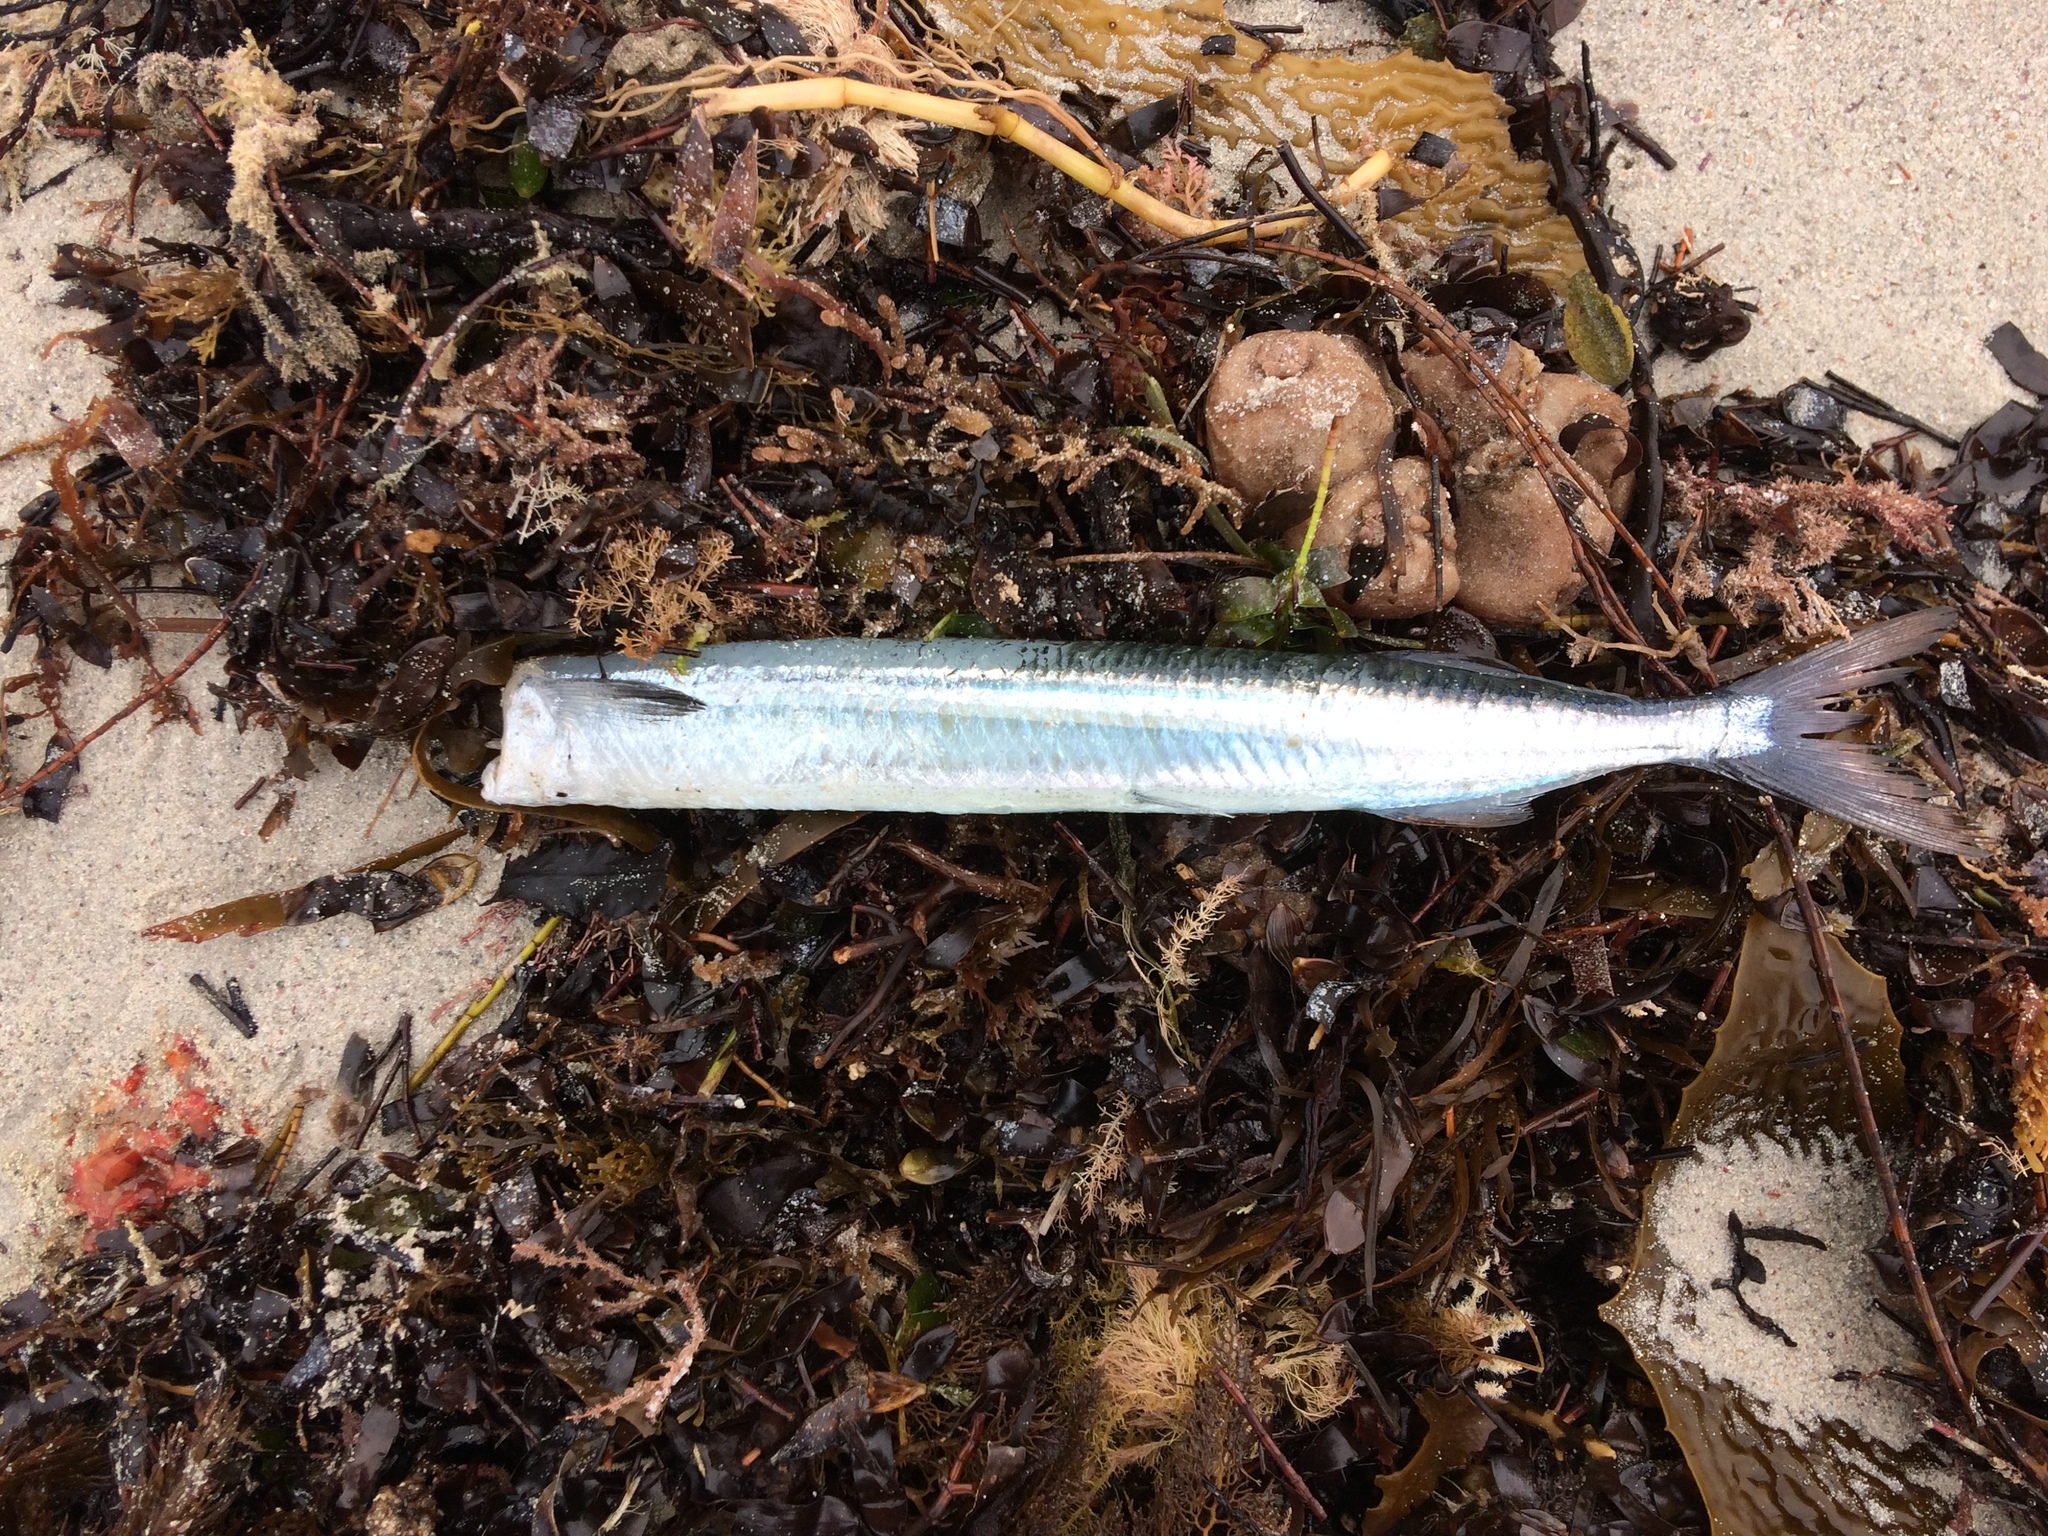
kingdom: Animalia
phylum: Chordata
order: Beloniformes
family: Hemiramphidae
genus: Hyporhamphus
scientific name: Hyporhamphus melanochir
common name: Southern garfish
